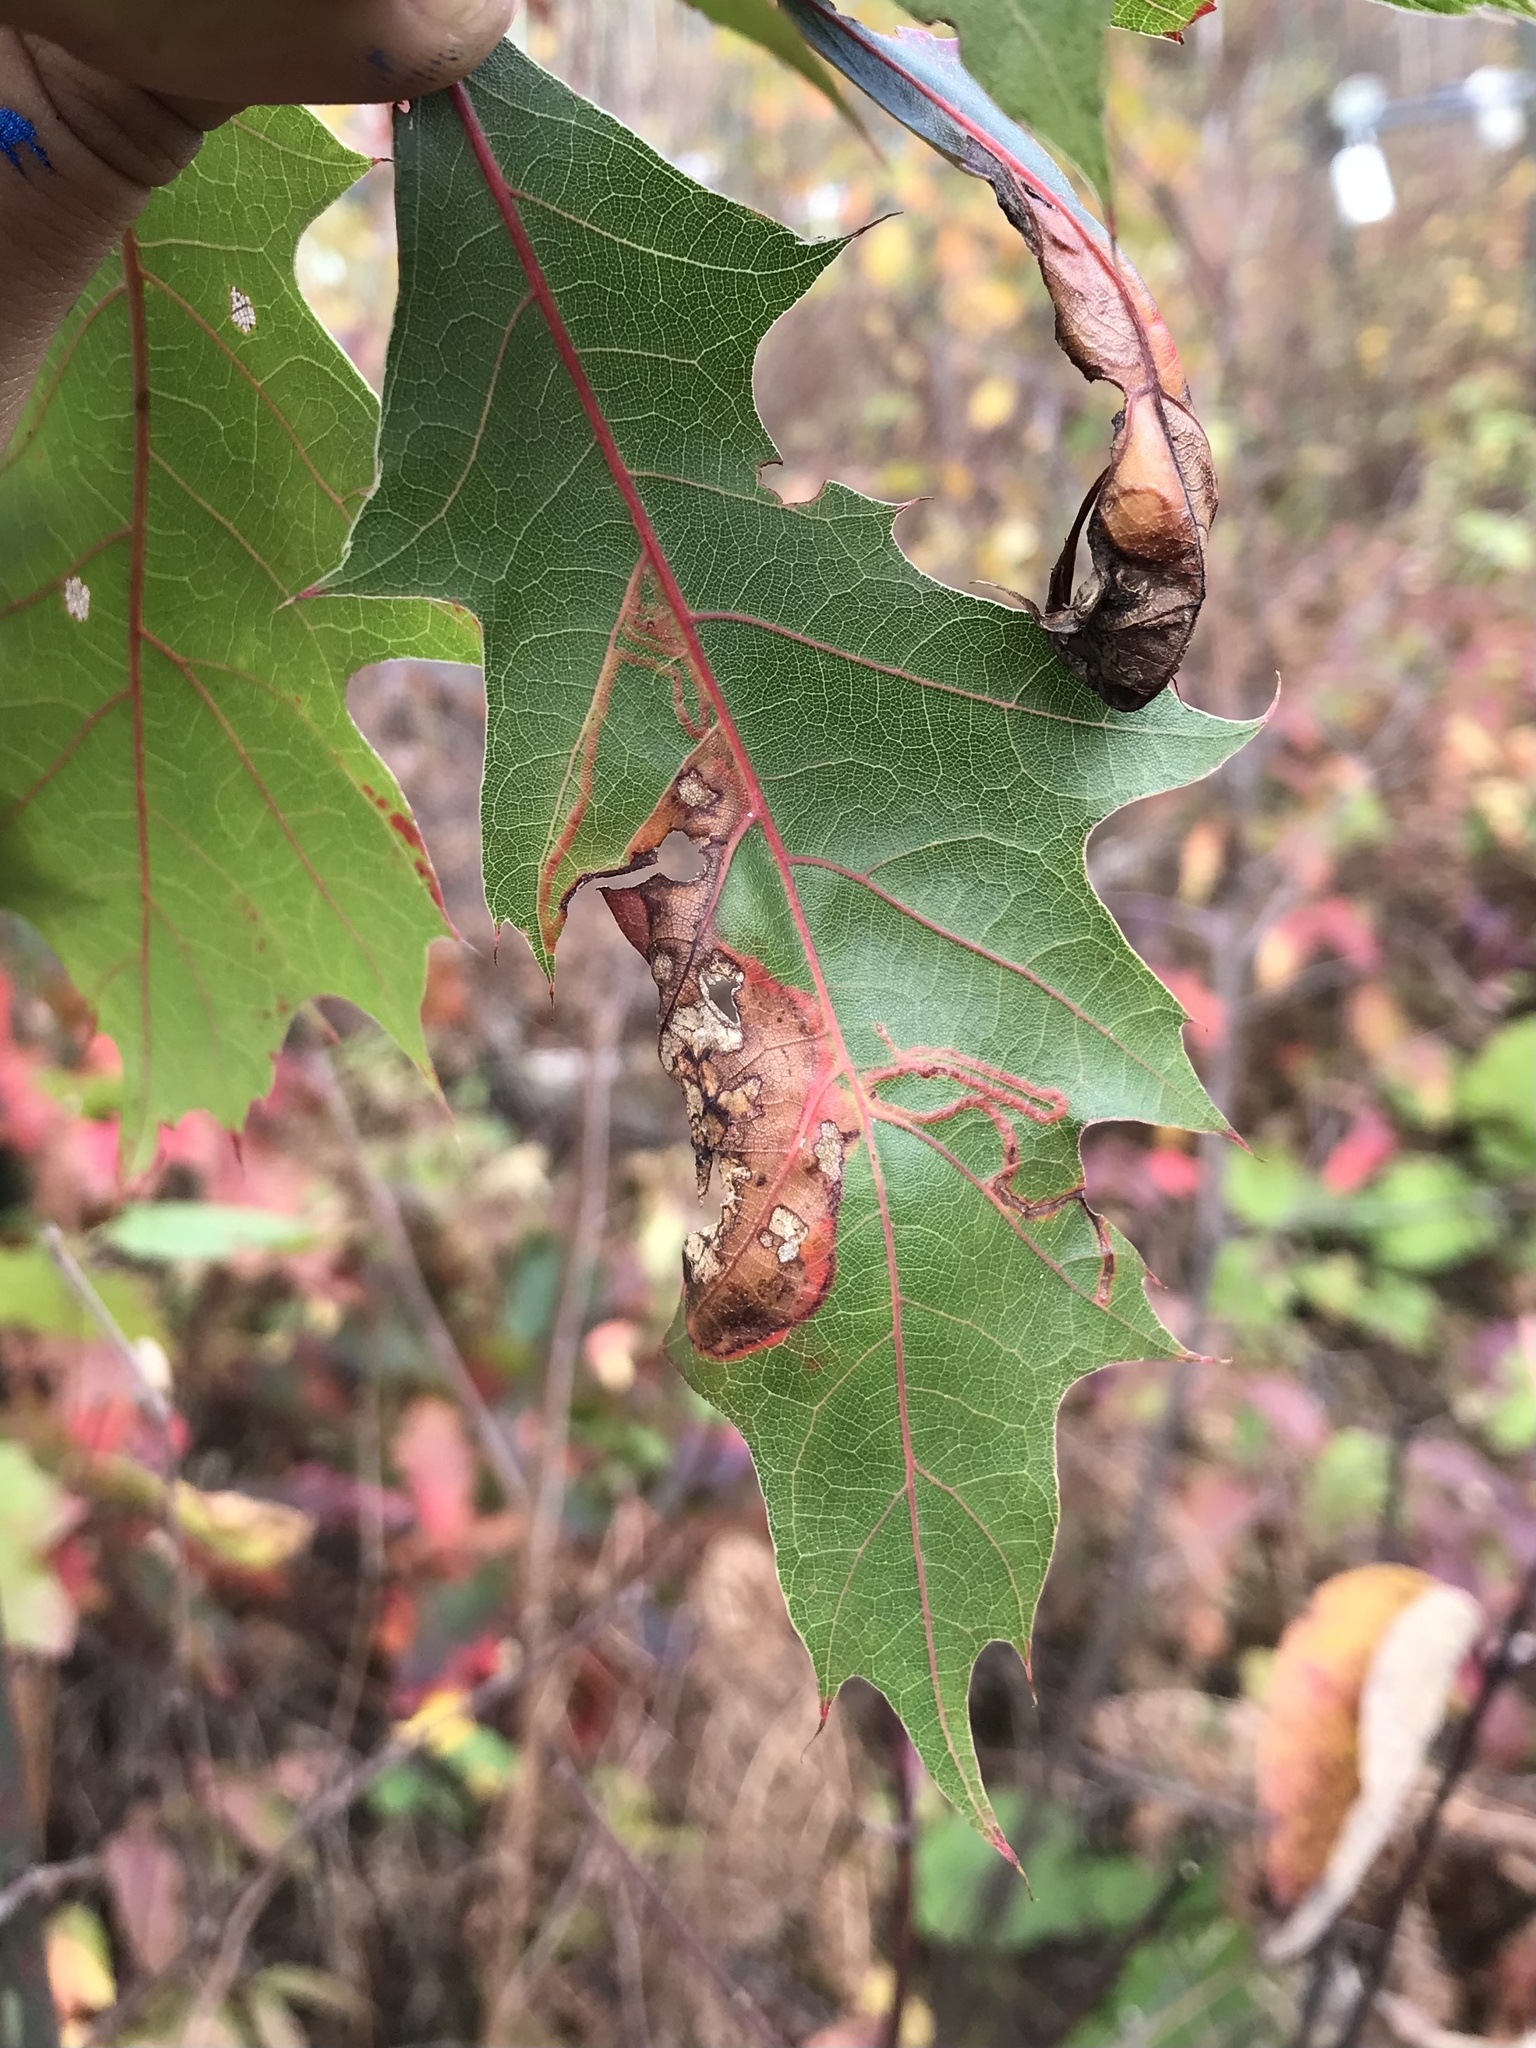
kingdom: Animalia
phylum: Arthropoda
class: Insecta
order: Lepidoptera
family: Gracillariidae
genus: Acrocercops
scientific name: Acrocercops albinatella
